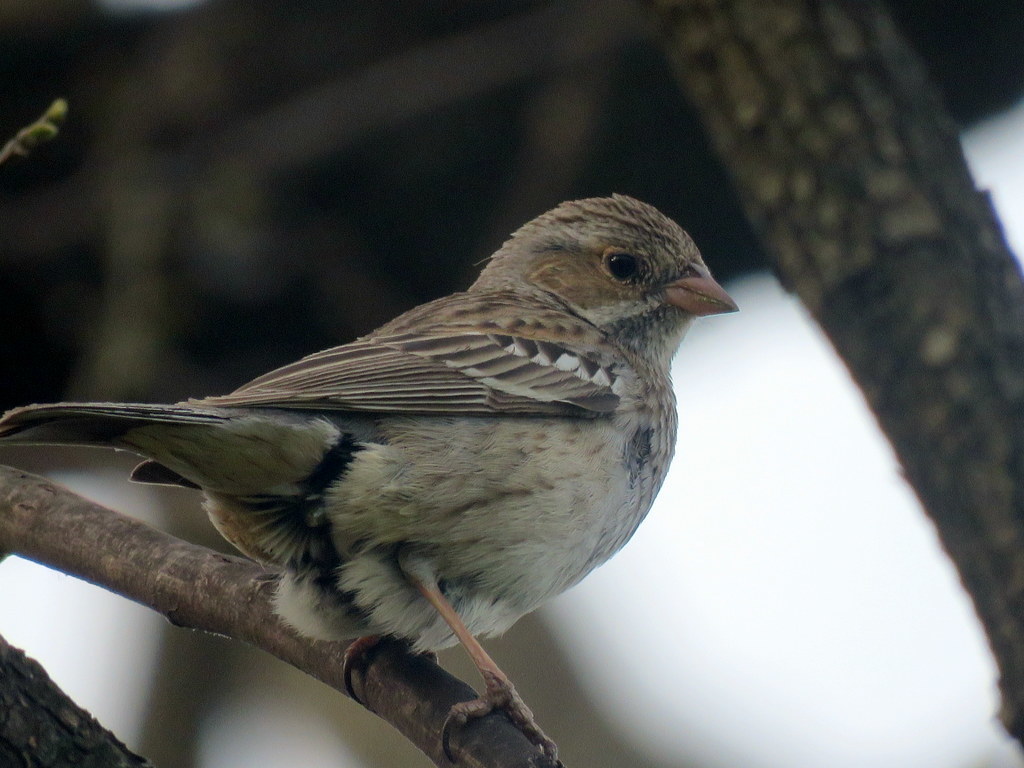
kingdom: Animalia
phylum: Chordata
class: Aves
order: Passeriformes
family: Thraupidae
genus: Rhopospina
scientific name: Rhopospina fruticeti
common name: Mourning sierra finch
